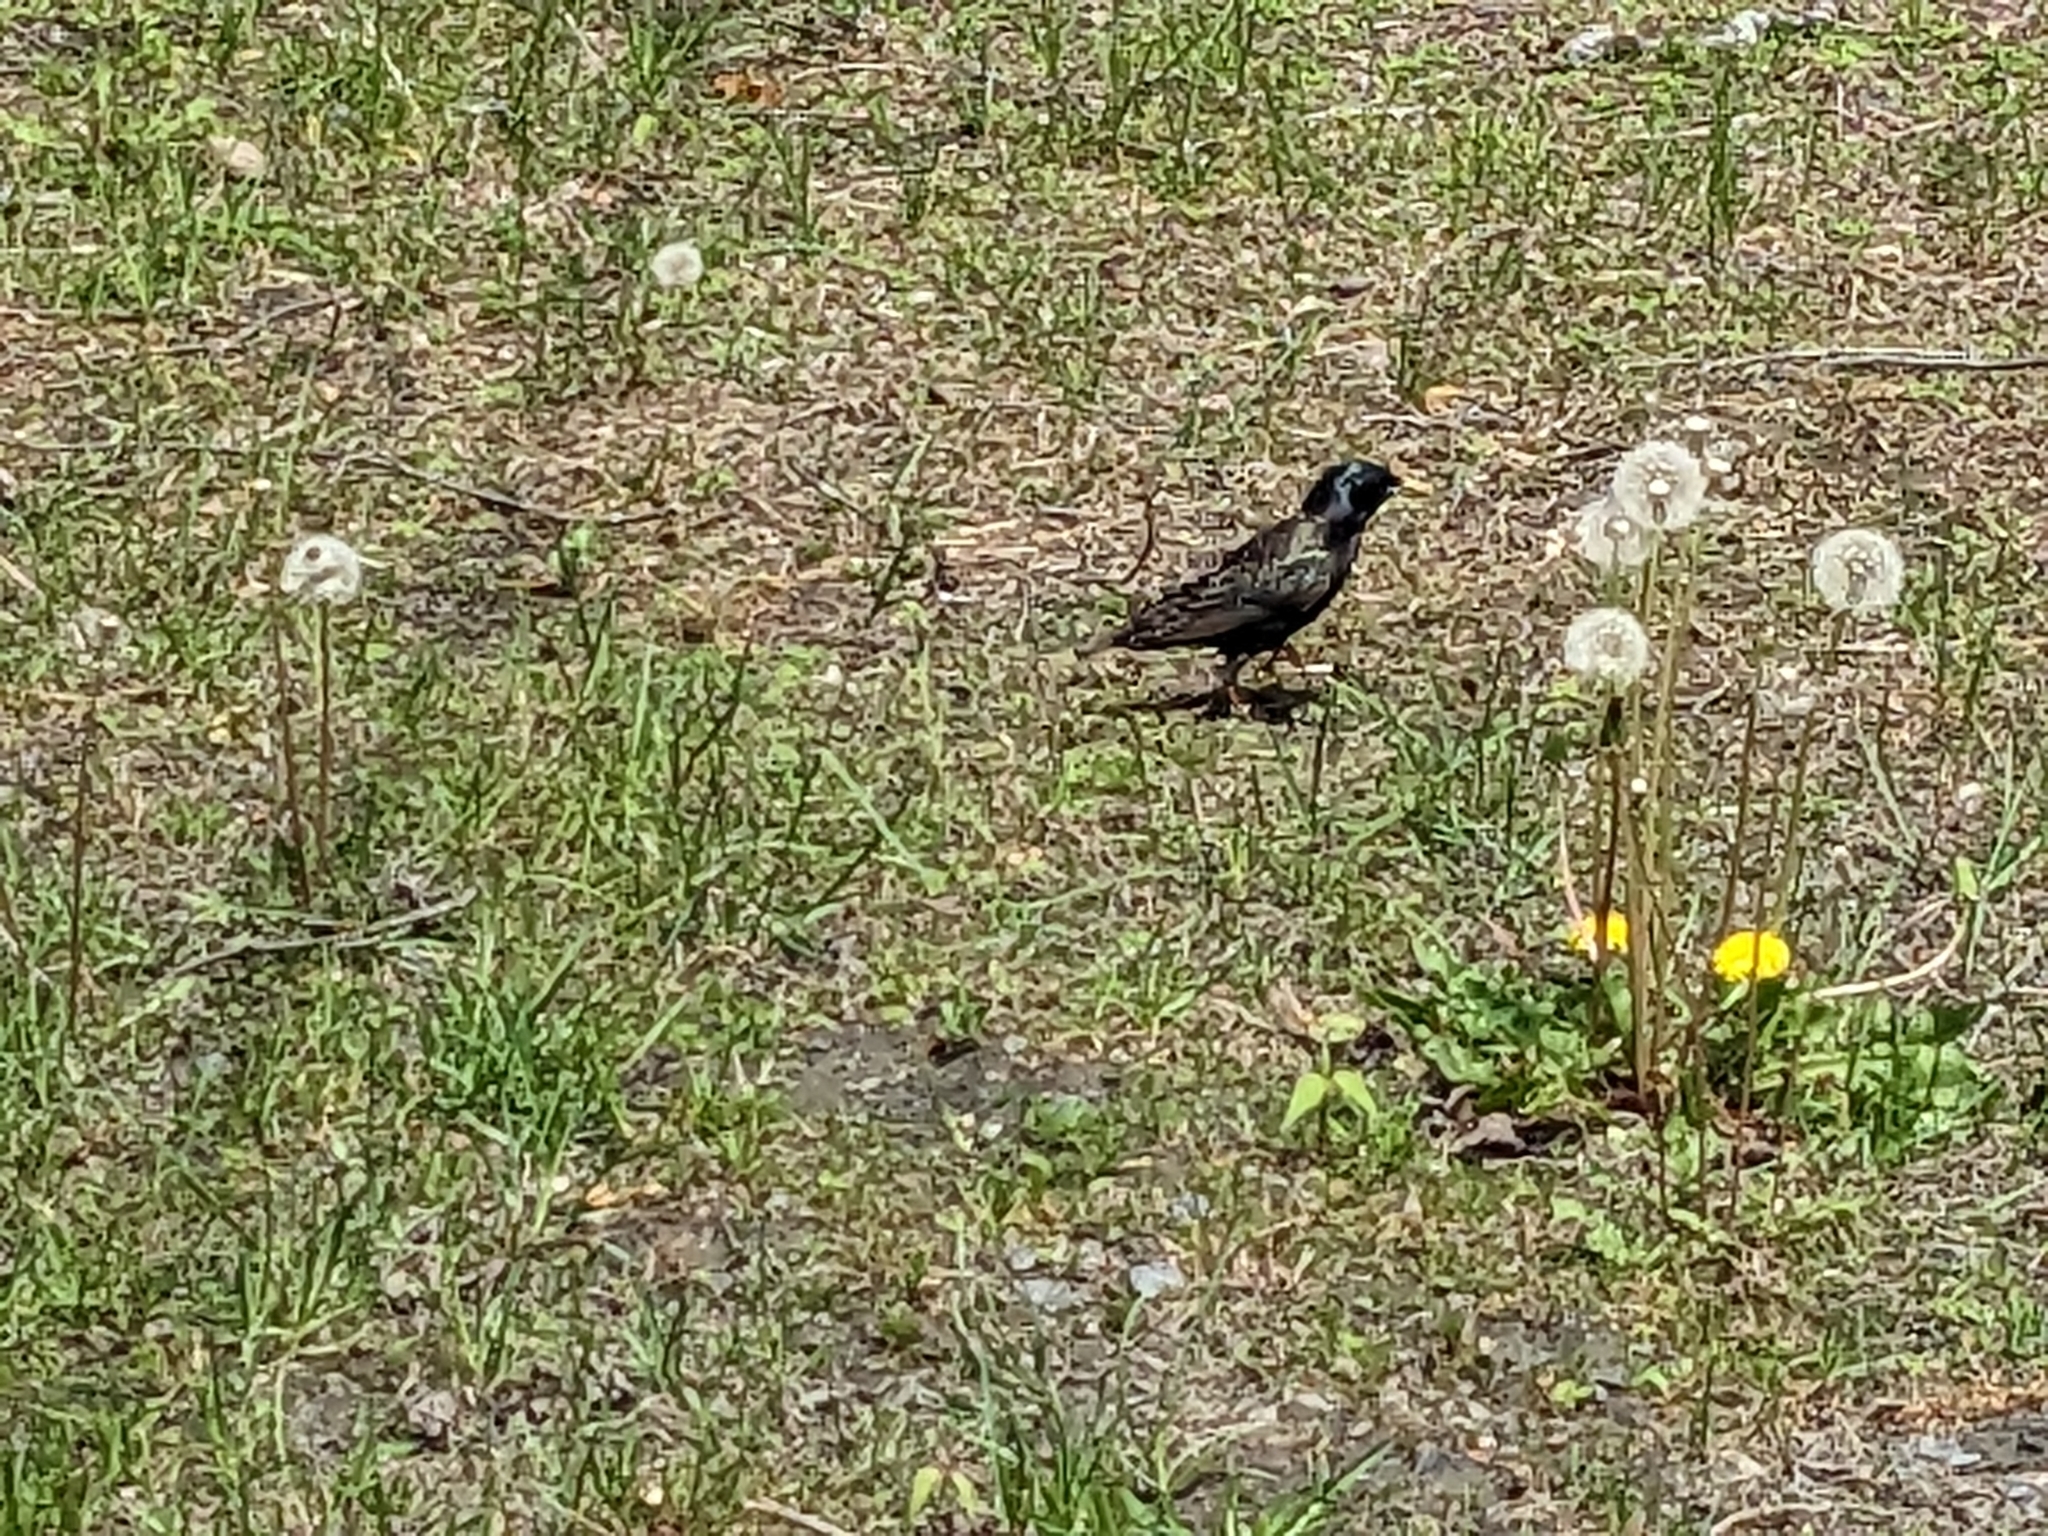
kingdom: Animalia
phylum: Chordata
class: Aves
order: Passeriformes
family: Sturnidae
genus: Sturnus
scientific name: Sturnus vulgaris
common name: Common starling
